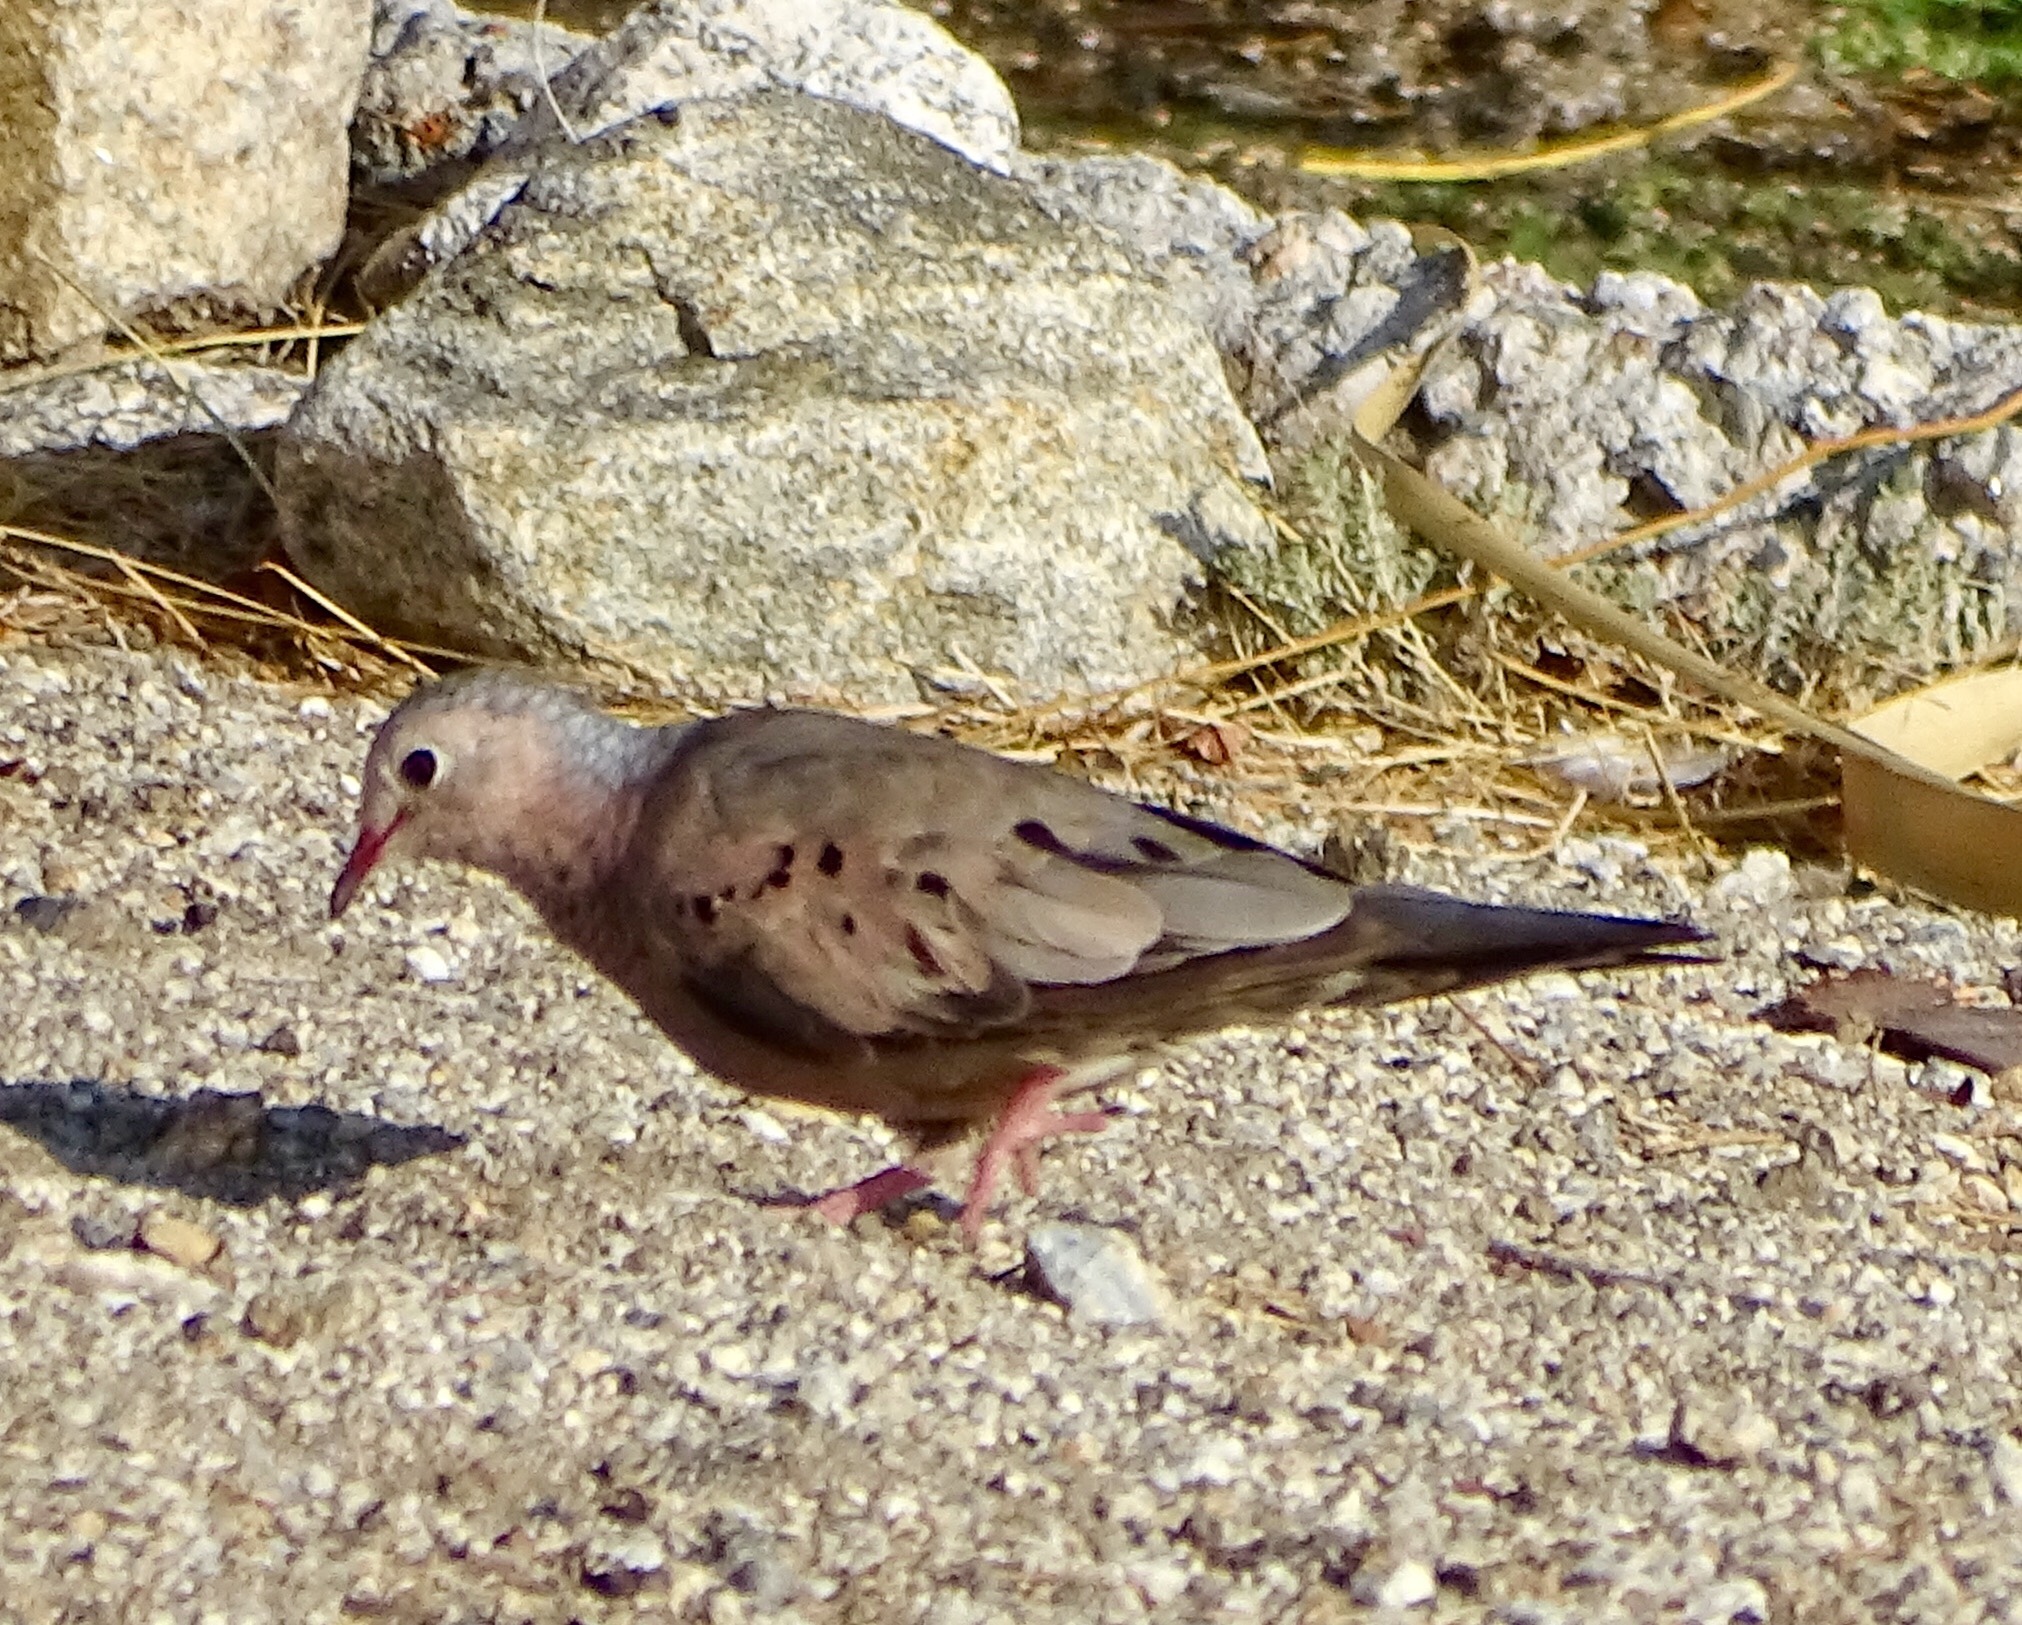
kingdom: Animalia
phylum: Chordata
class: Aves
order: Columbiformes
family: Columbidae
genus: Columbina
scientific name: Columbina passerina
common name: Common ground-dove
